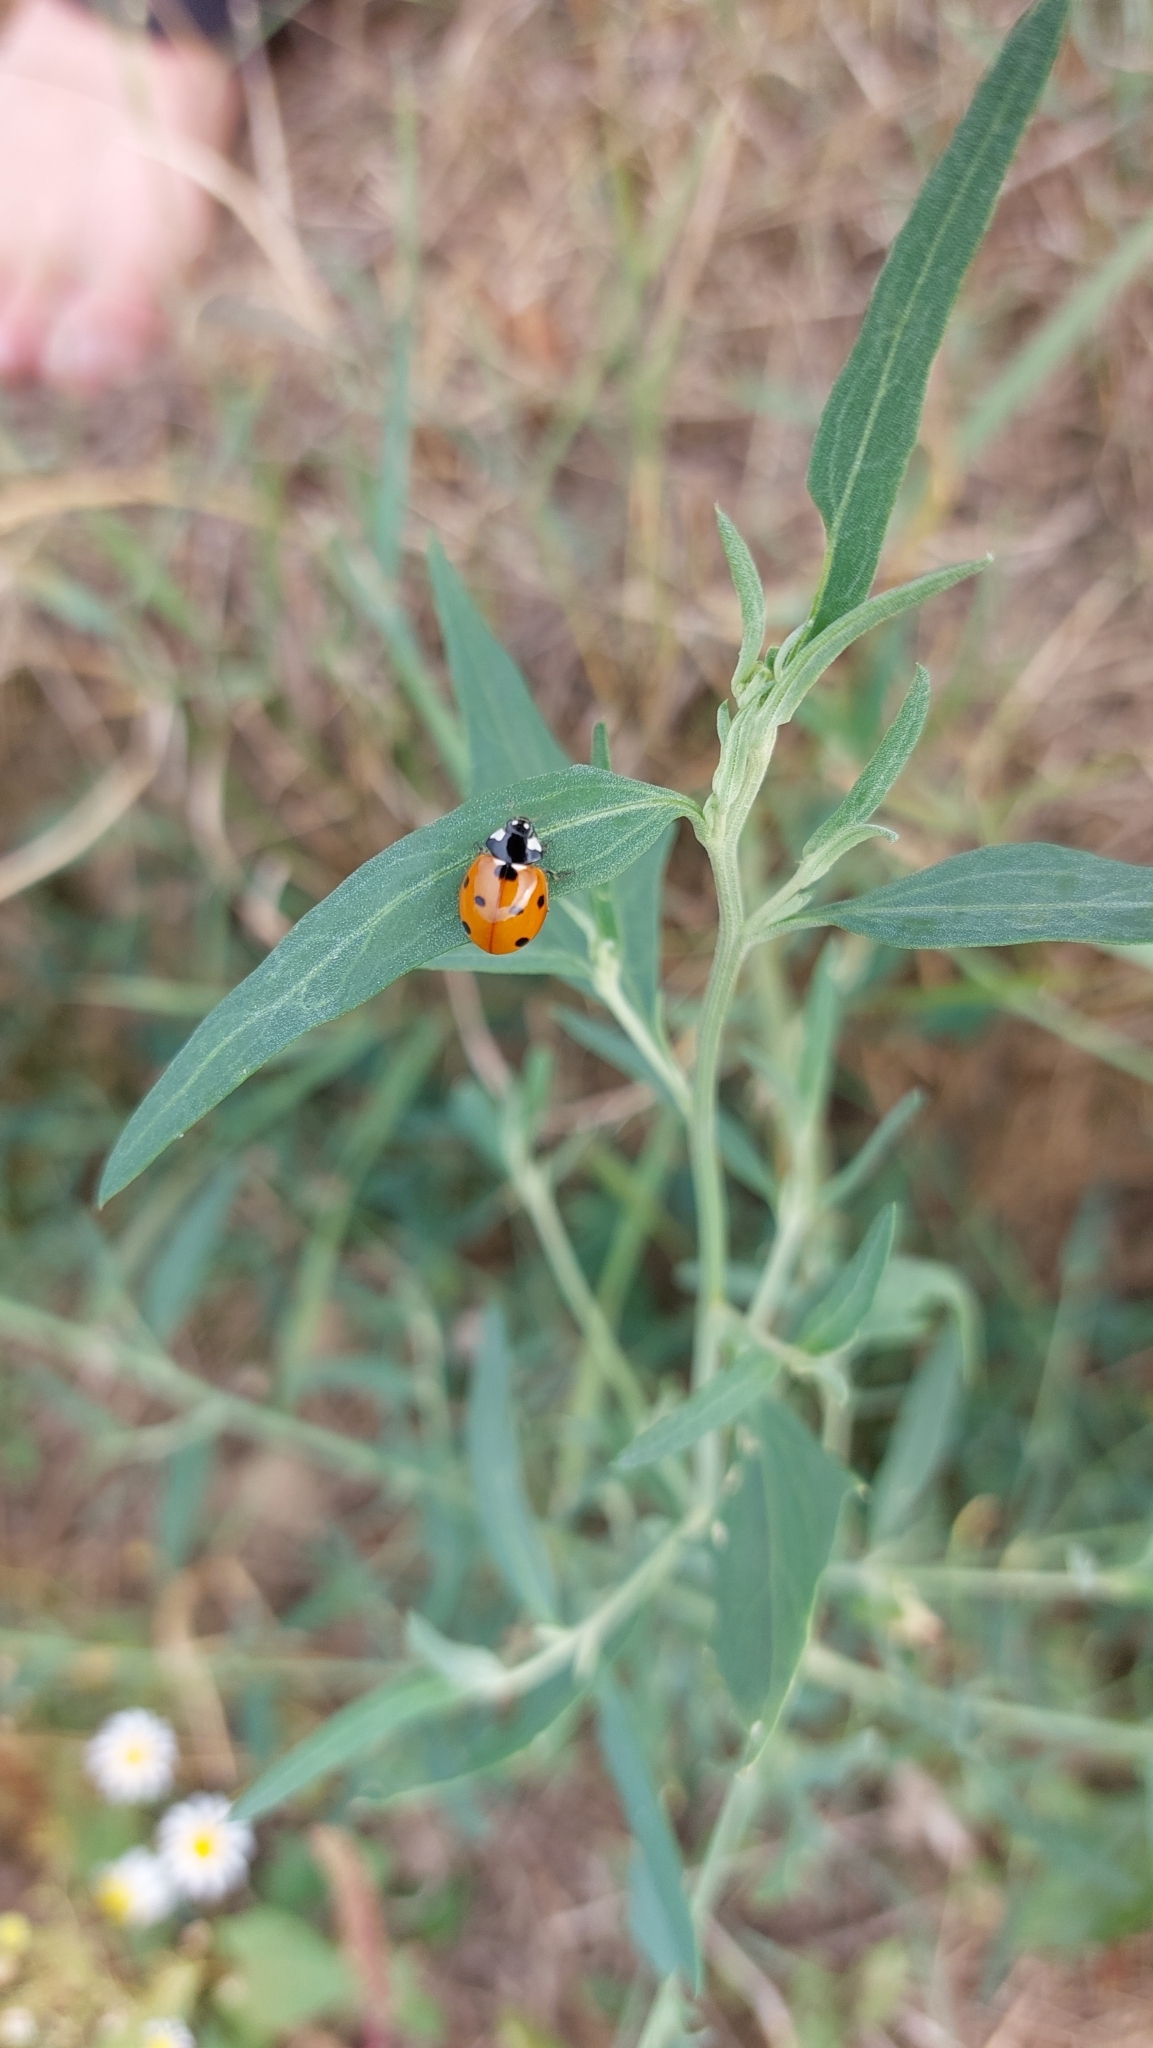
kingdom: Animalia
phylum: Arthropoda
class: Insecta
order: Coleoptera
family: Coccinellidae
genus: Coccinella
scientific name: Coccinella septempunctata
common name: Sevenspotted lady beetle
